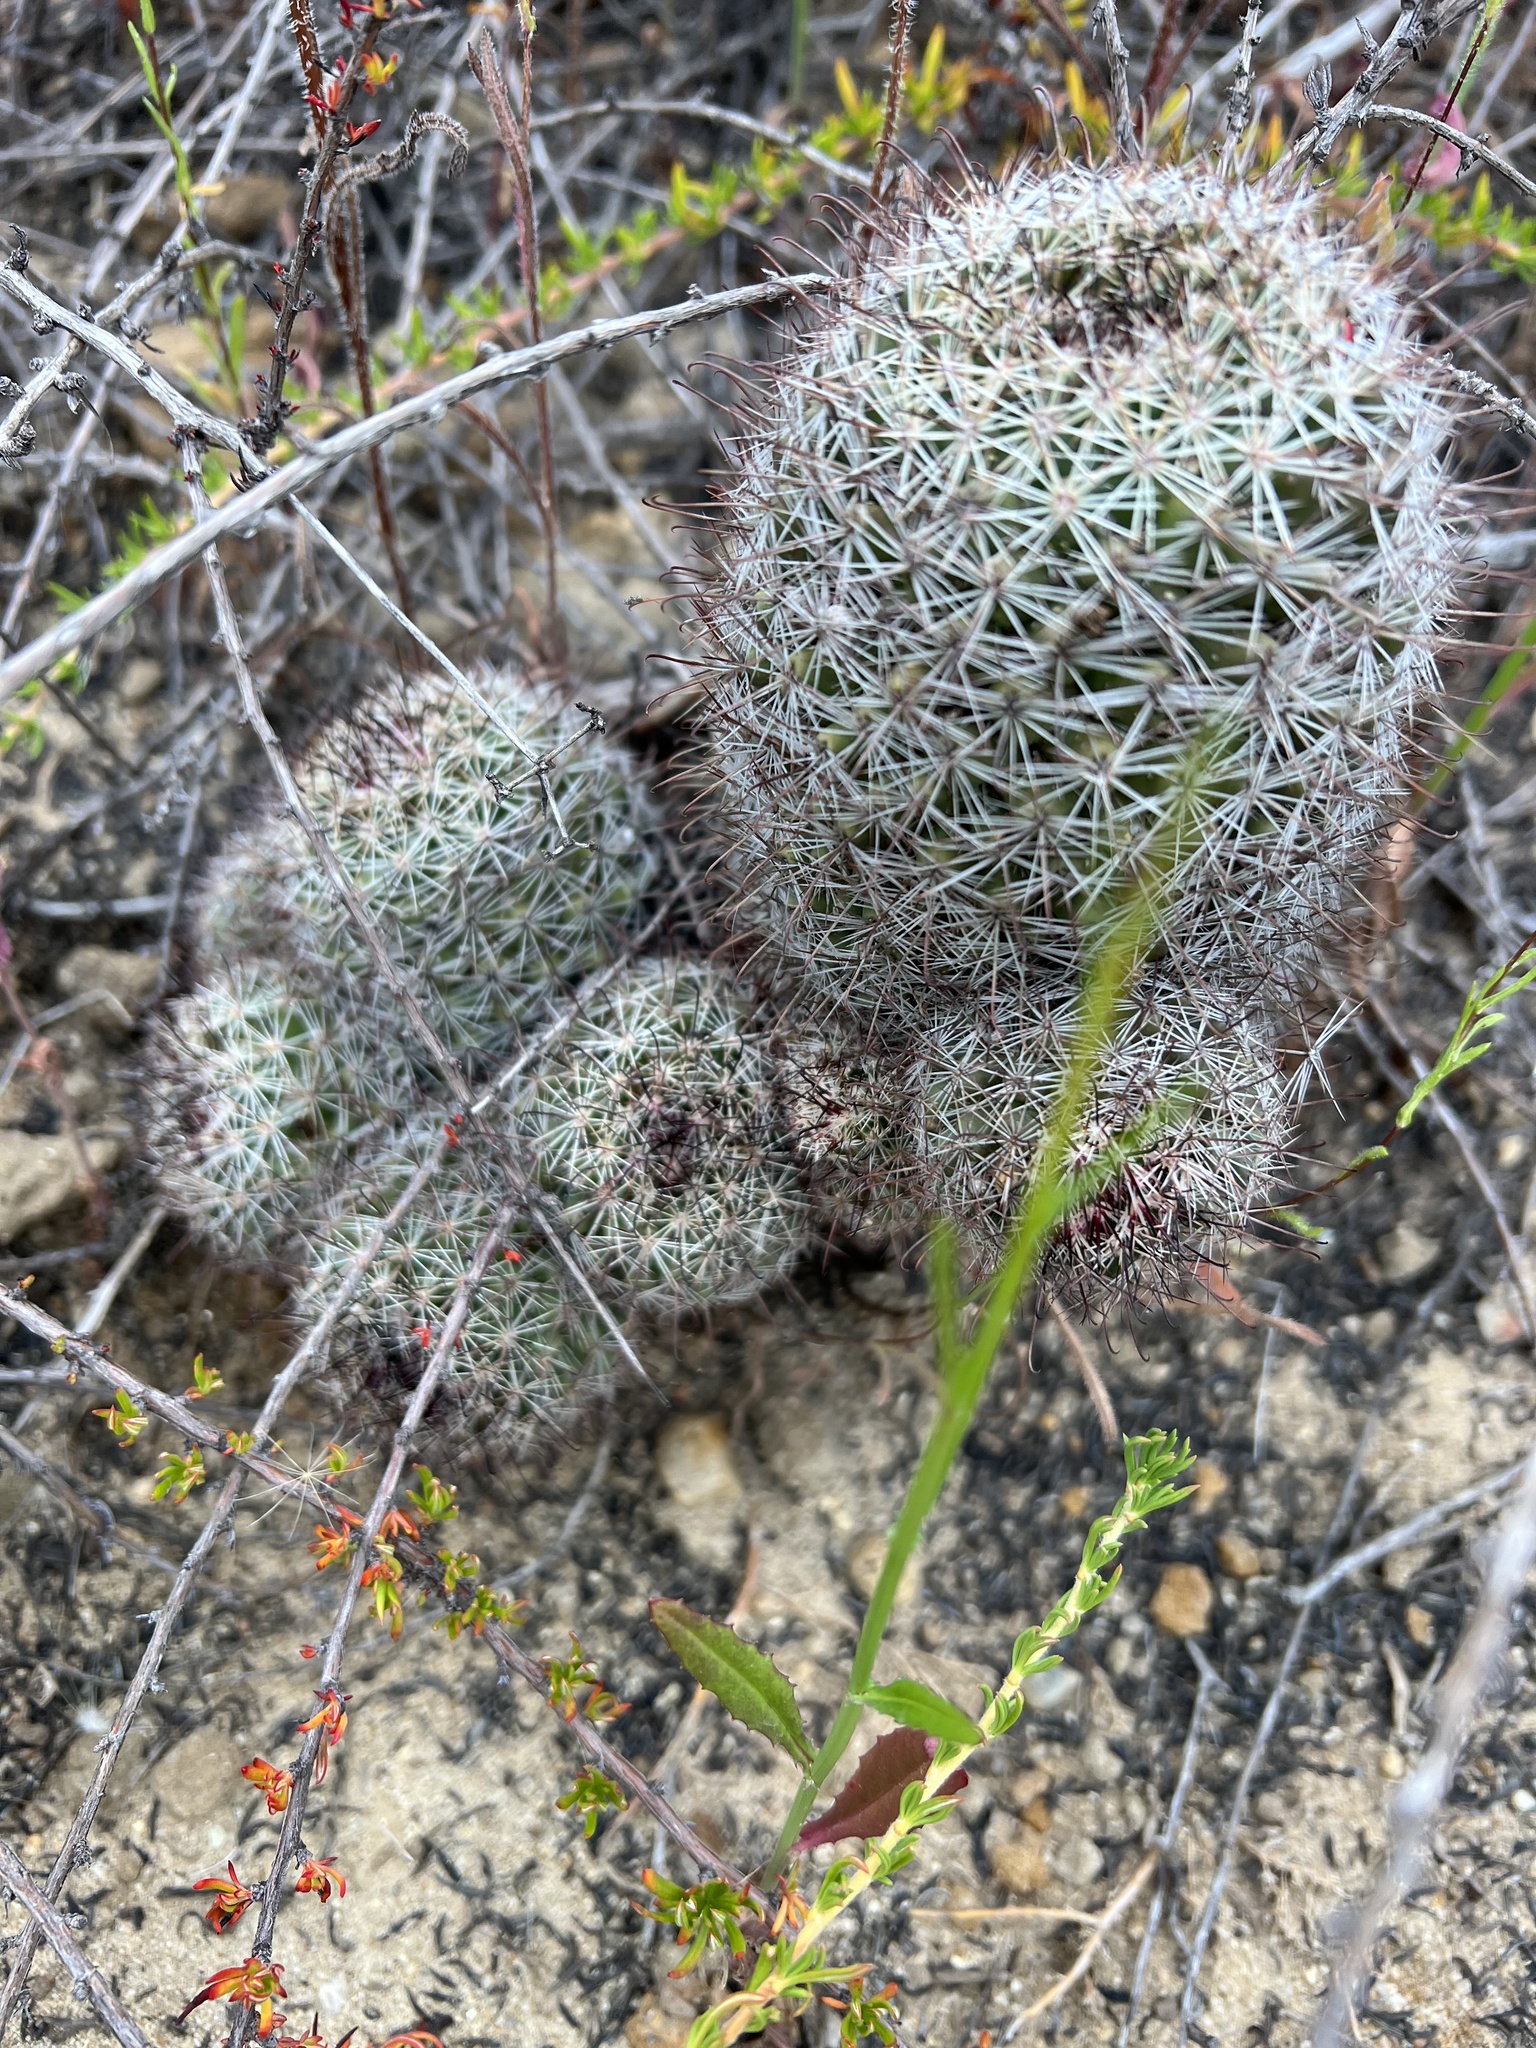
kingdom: Plantae
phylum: Tracheophyta
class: Magnoliopsida
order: Caryophyllales
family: Cactaceae
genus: Cochemiea
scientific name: Cochemiea dioica
